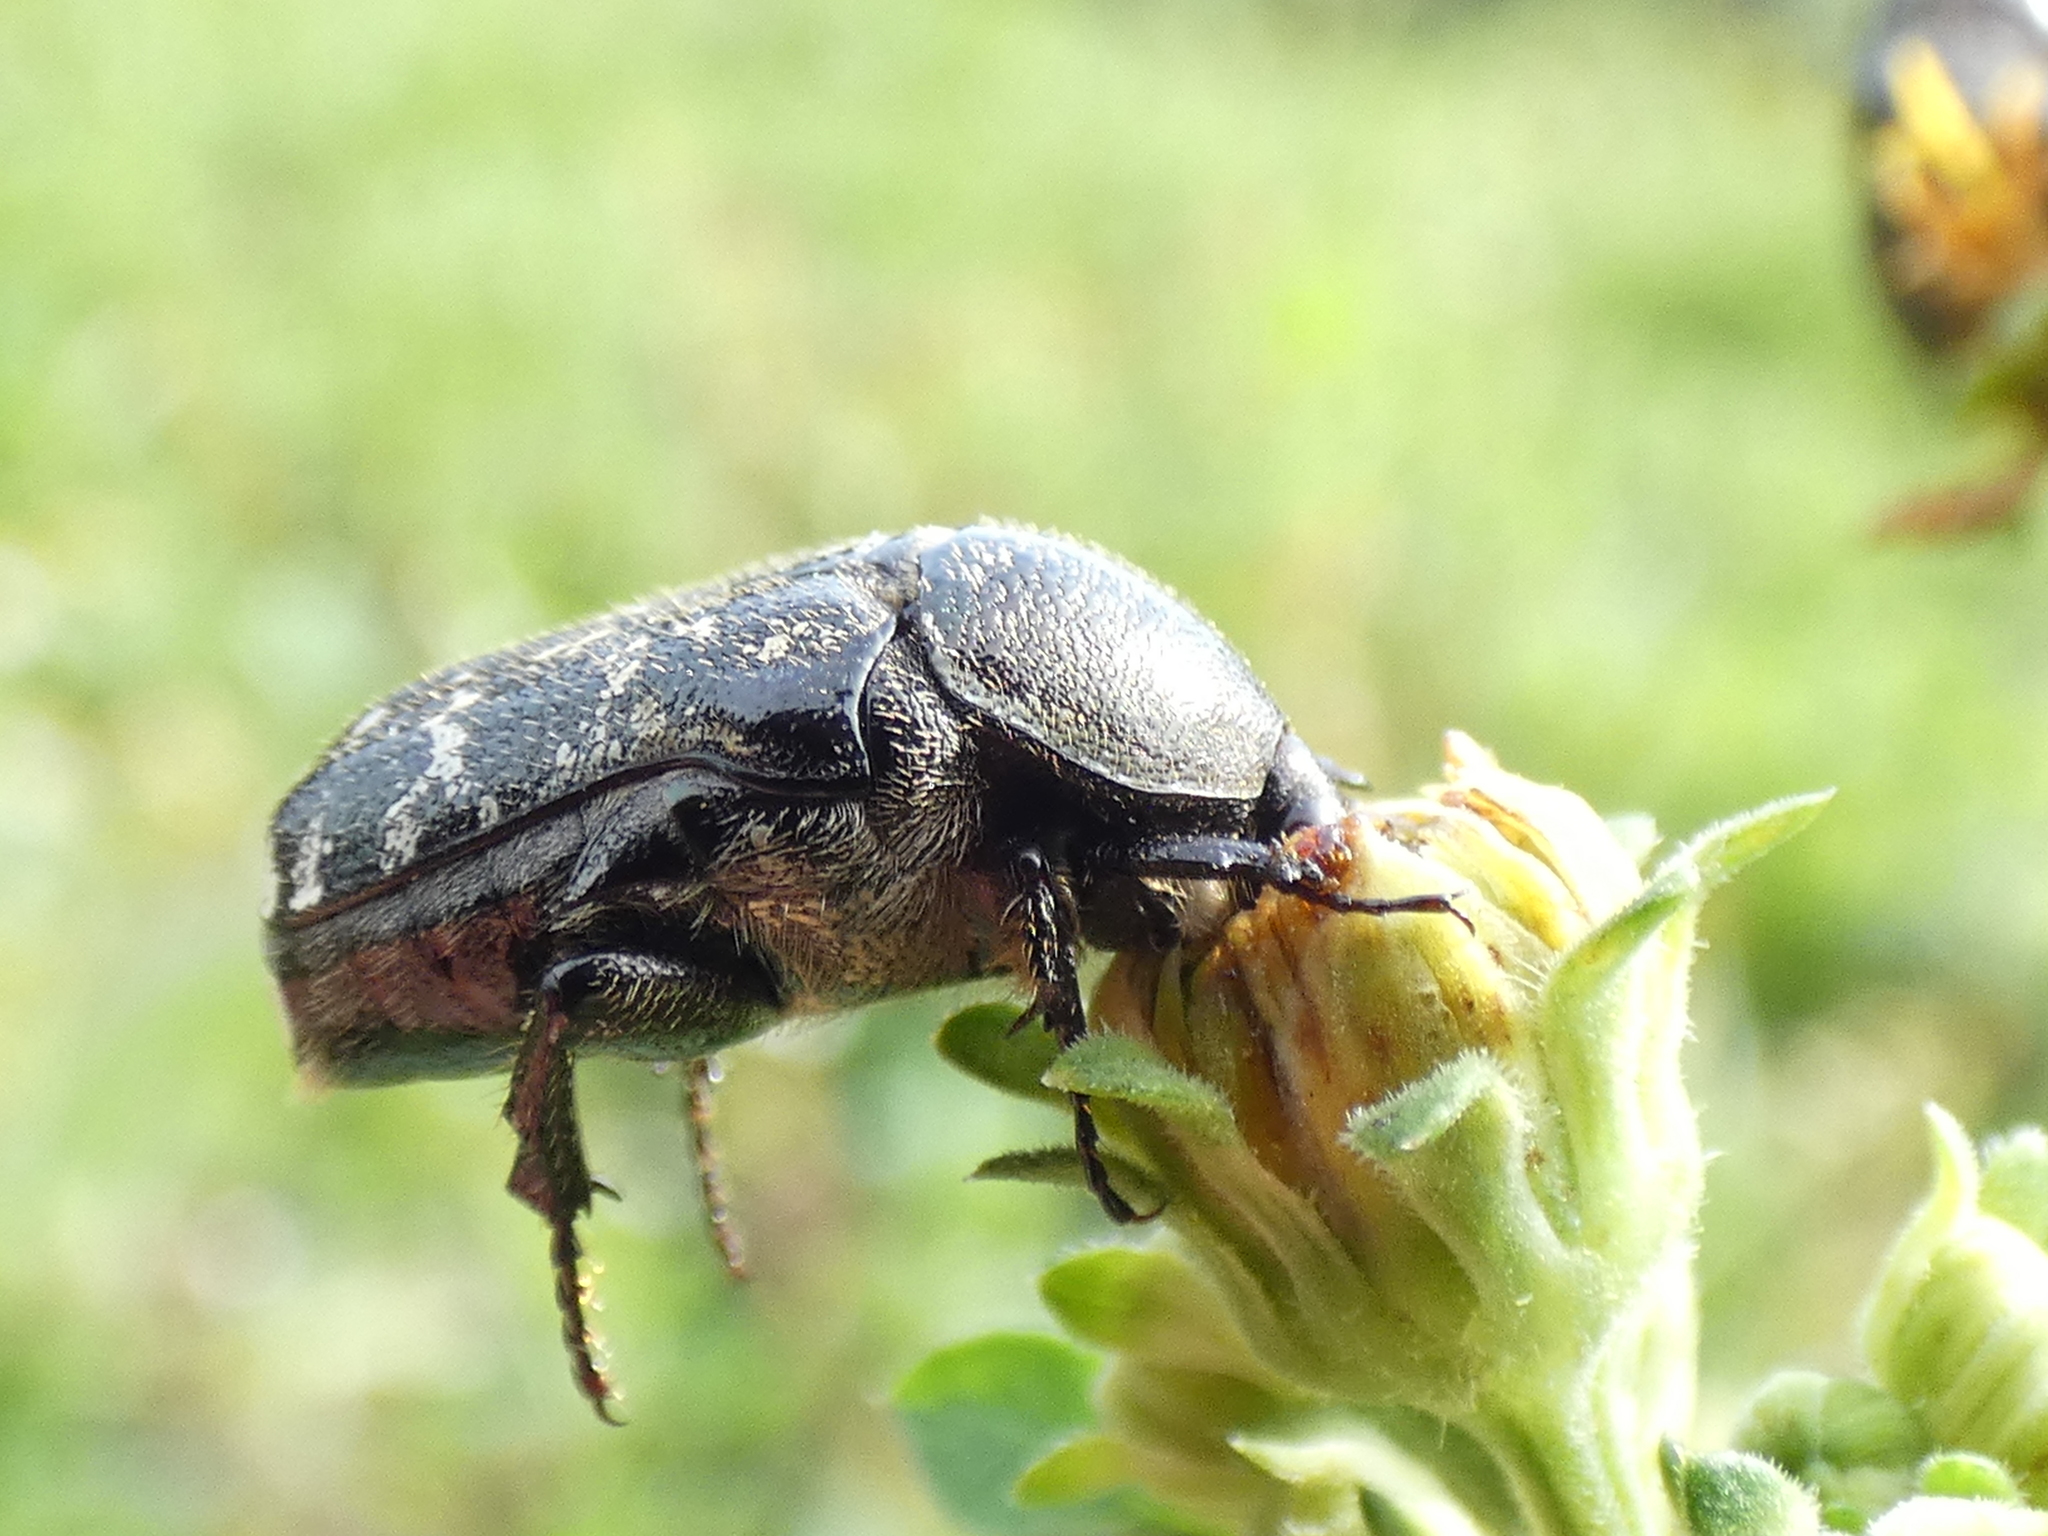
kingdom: Animalia
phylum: Arthropoda
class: Insecta
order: Coleoptera
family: Scarabaeidae
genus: Euphoria
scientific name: Euphoria sepulcralis
